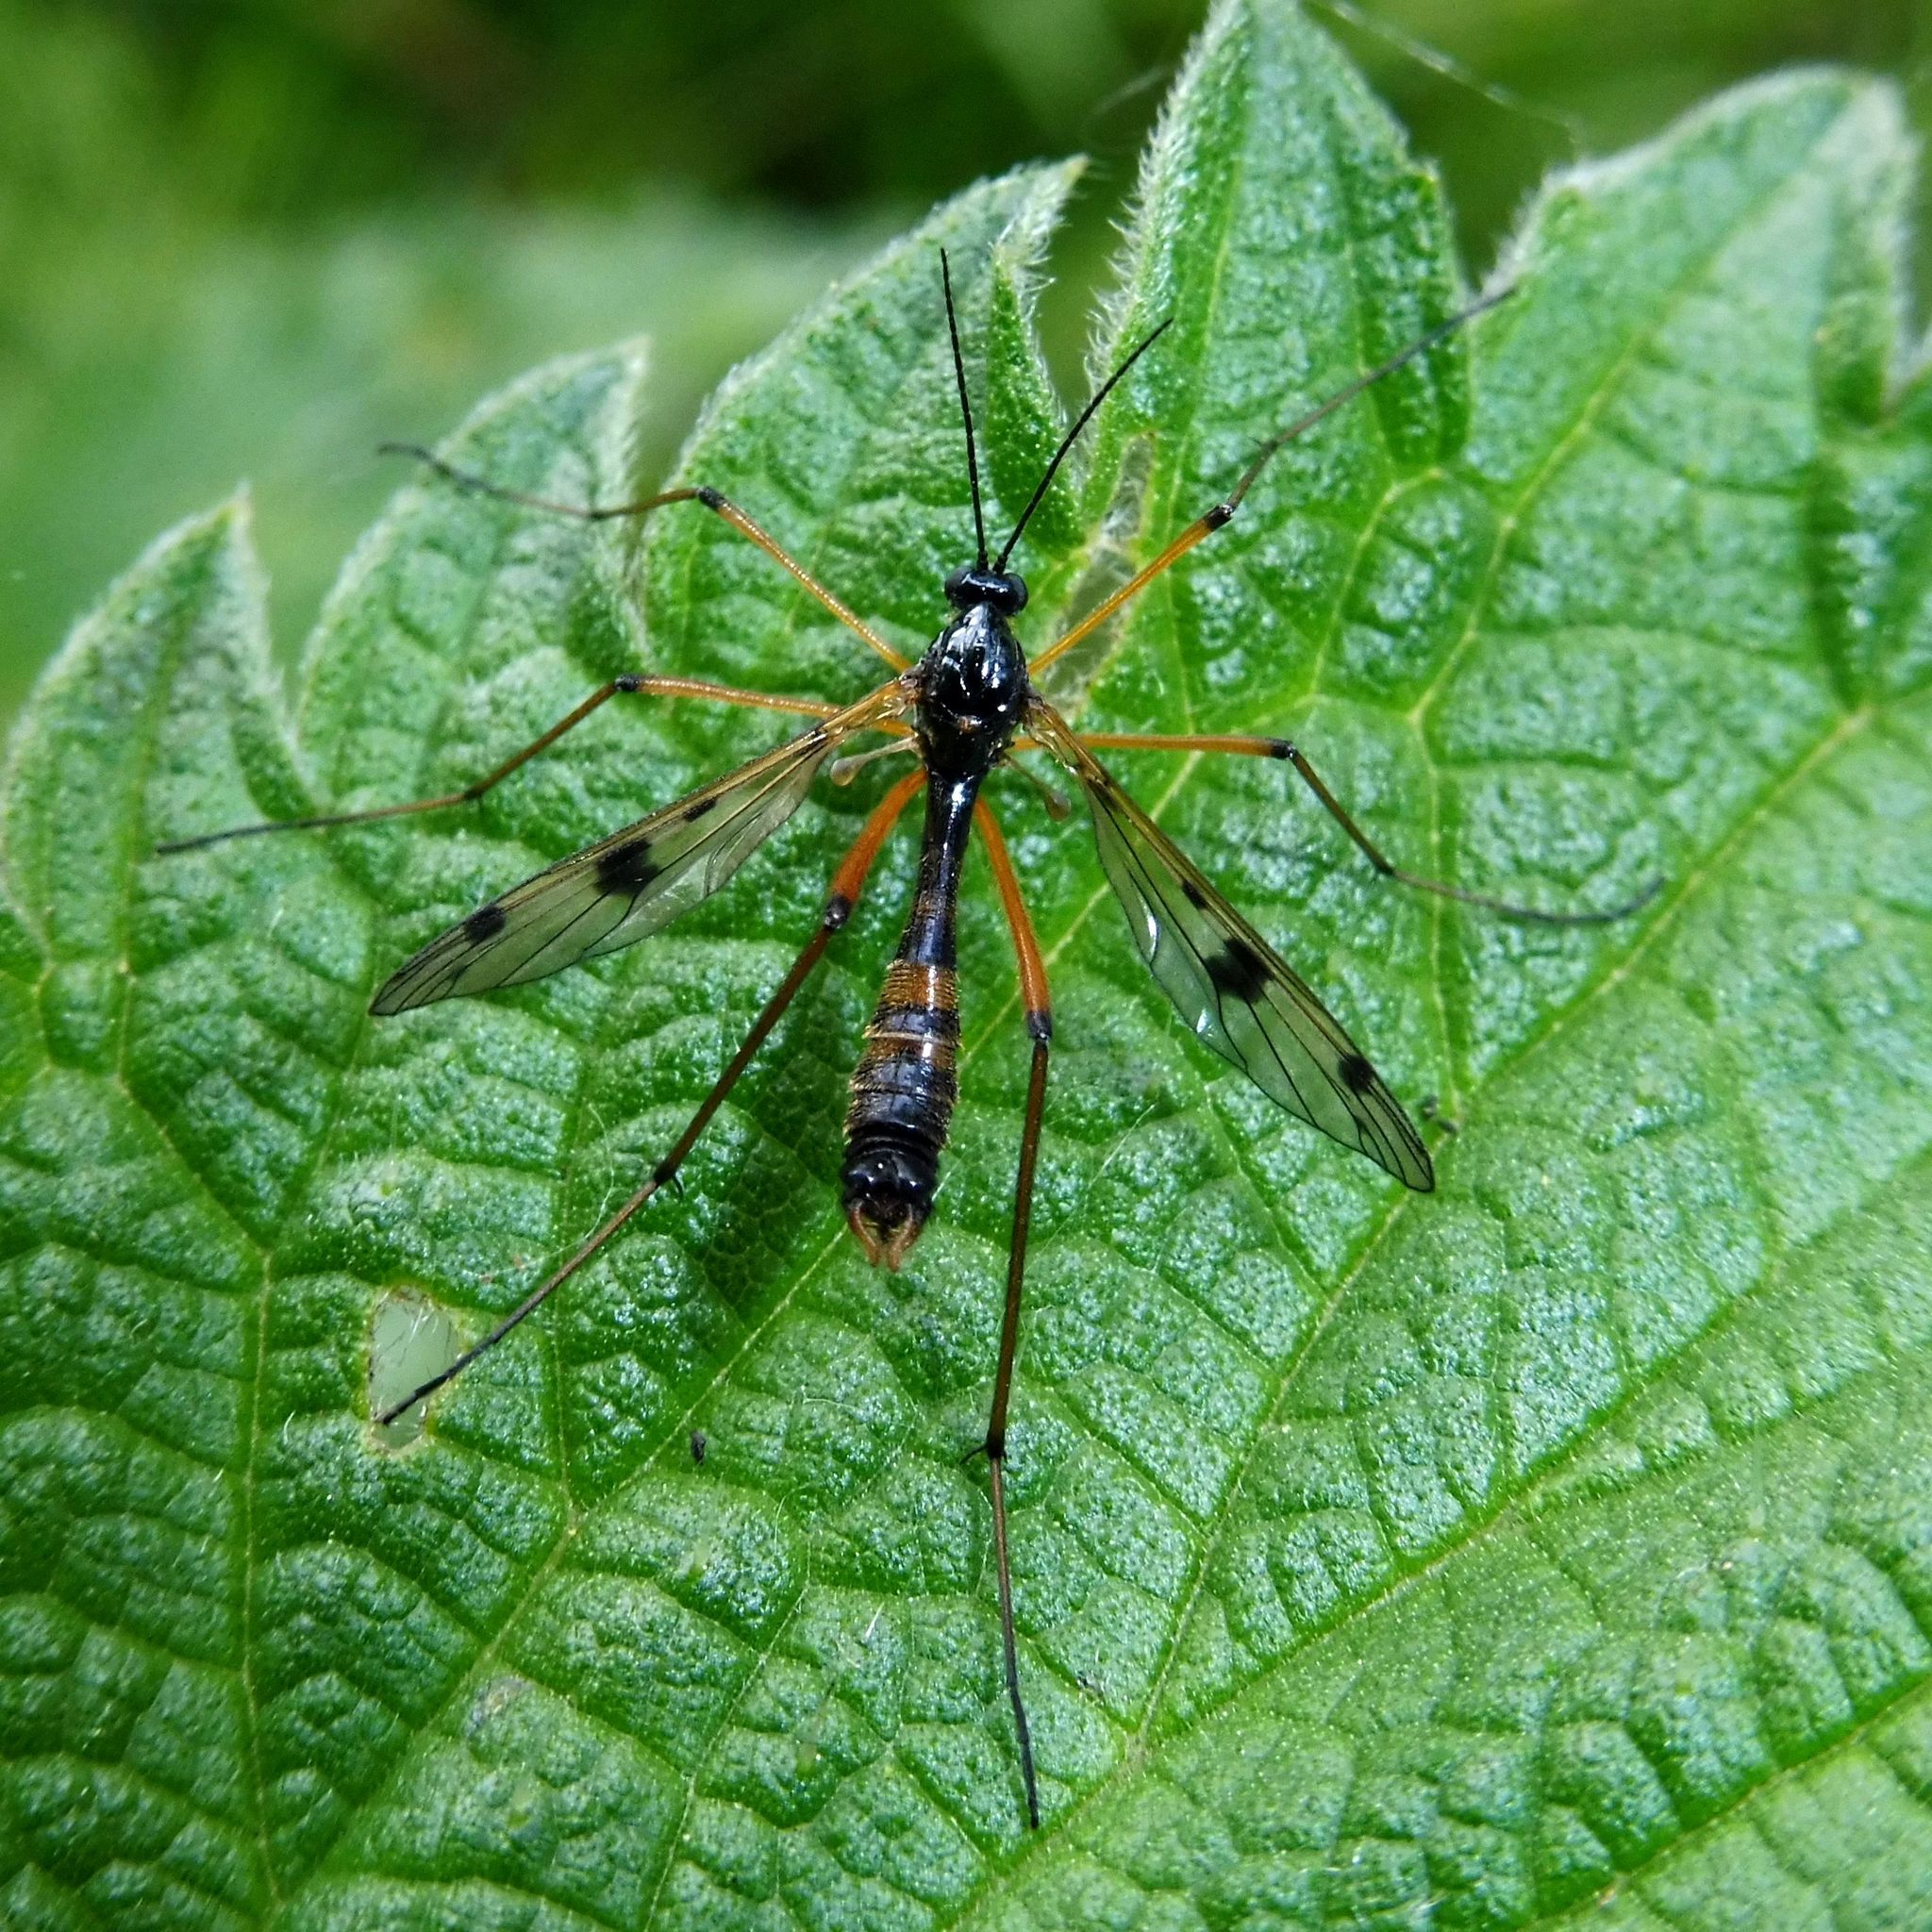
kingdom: Animalia
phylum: Arthropoda
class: Insecta
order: Diptera
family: Ptychopteridae
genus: Ptychoptera
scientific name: Ptychoptera contaminata
